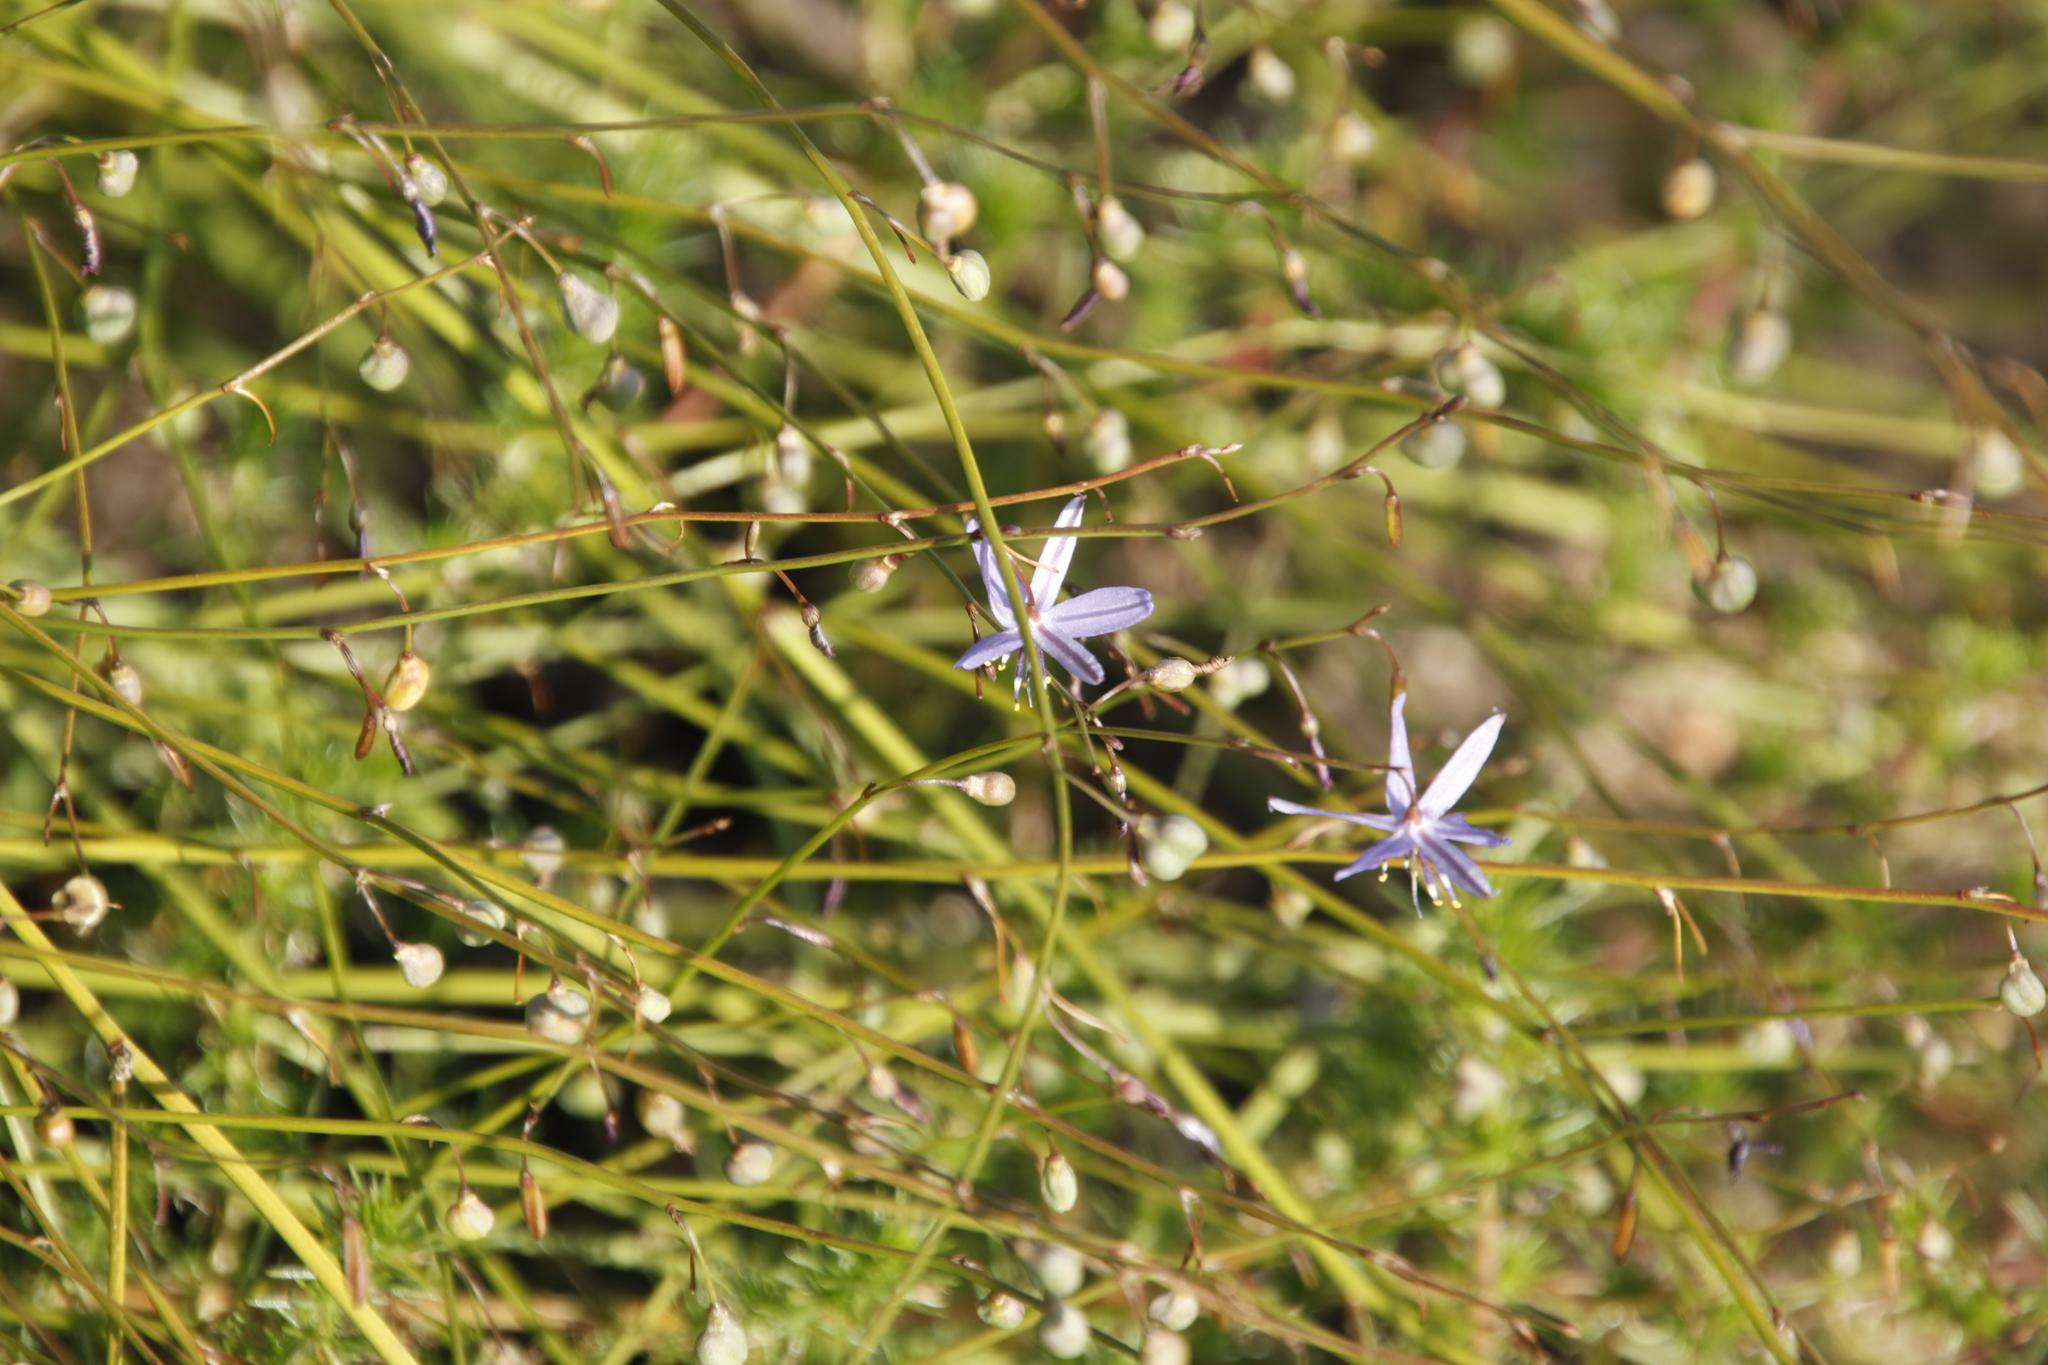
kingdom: Plantae
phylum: Tracheophyta
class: Liliopsida
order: Asparagales
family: Asphodelaceae
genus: Caesia
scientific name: Caesia contorta
